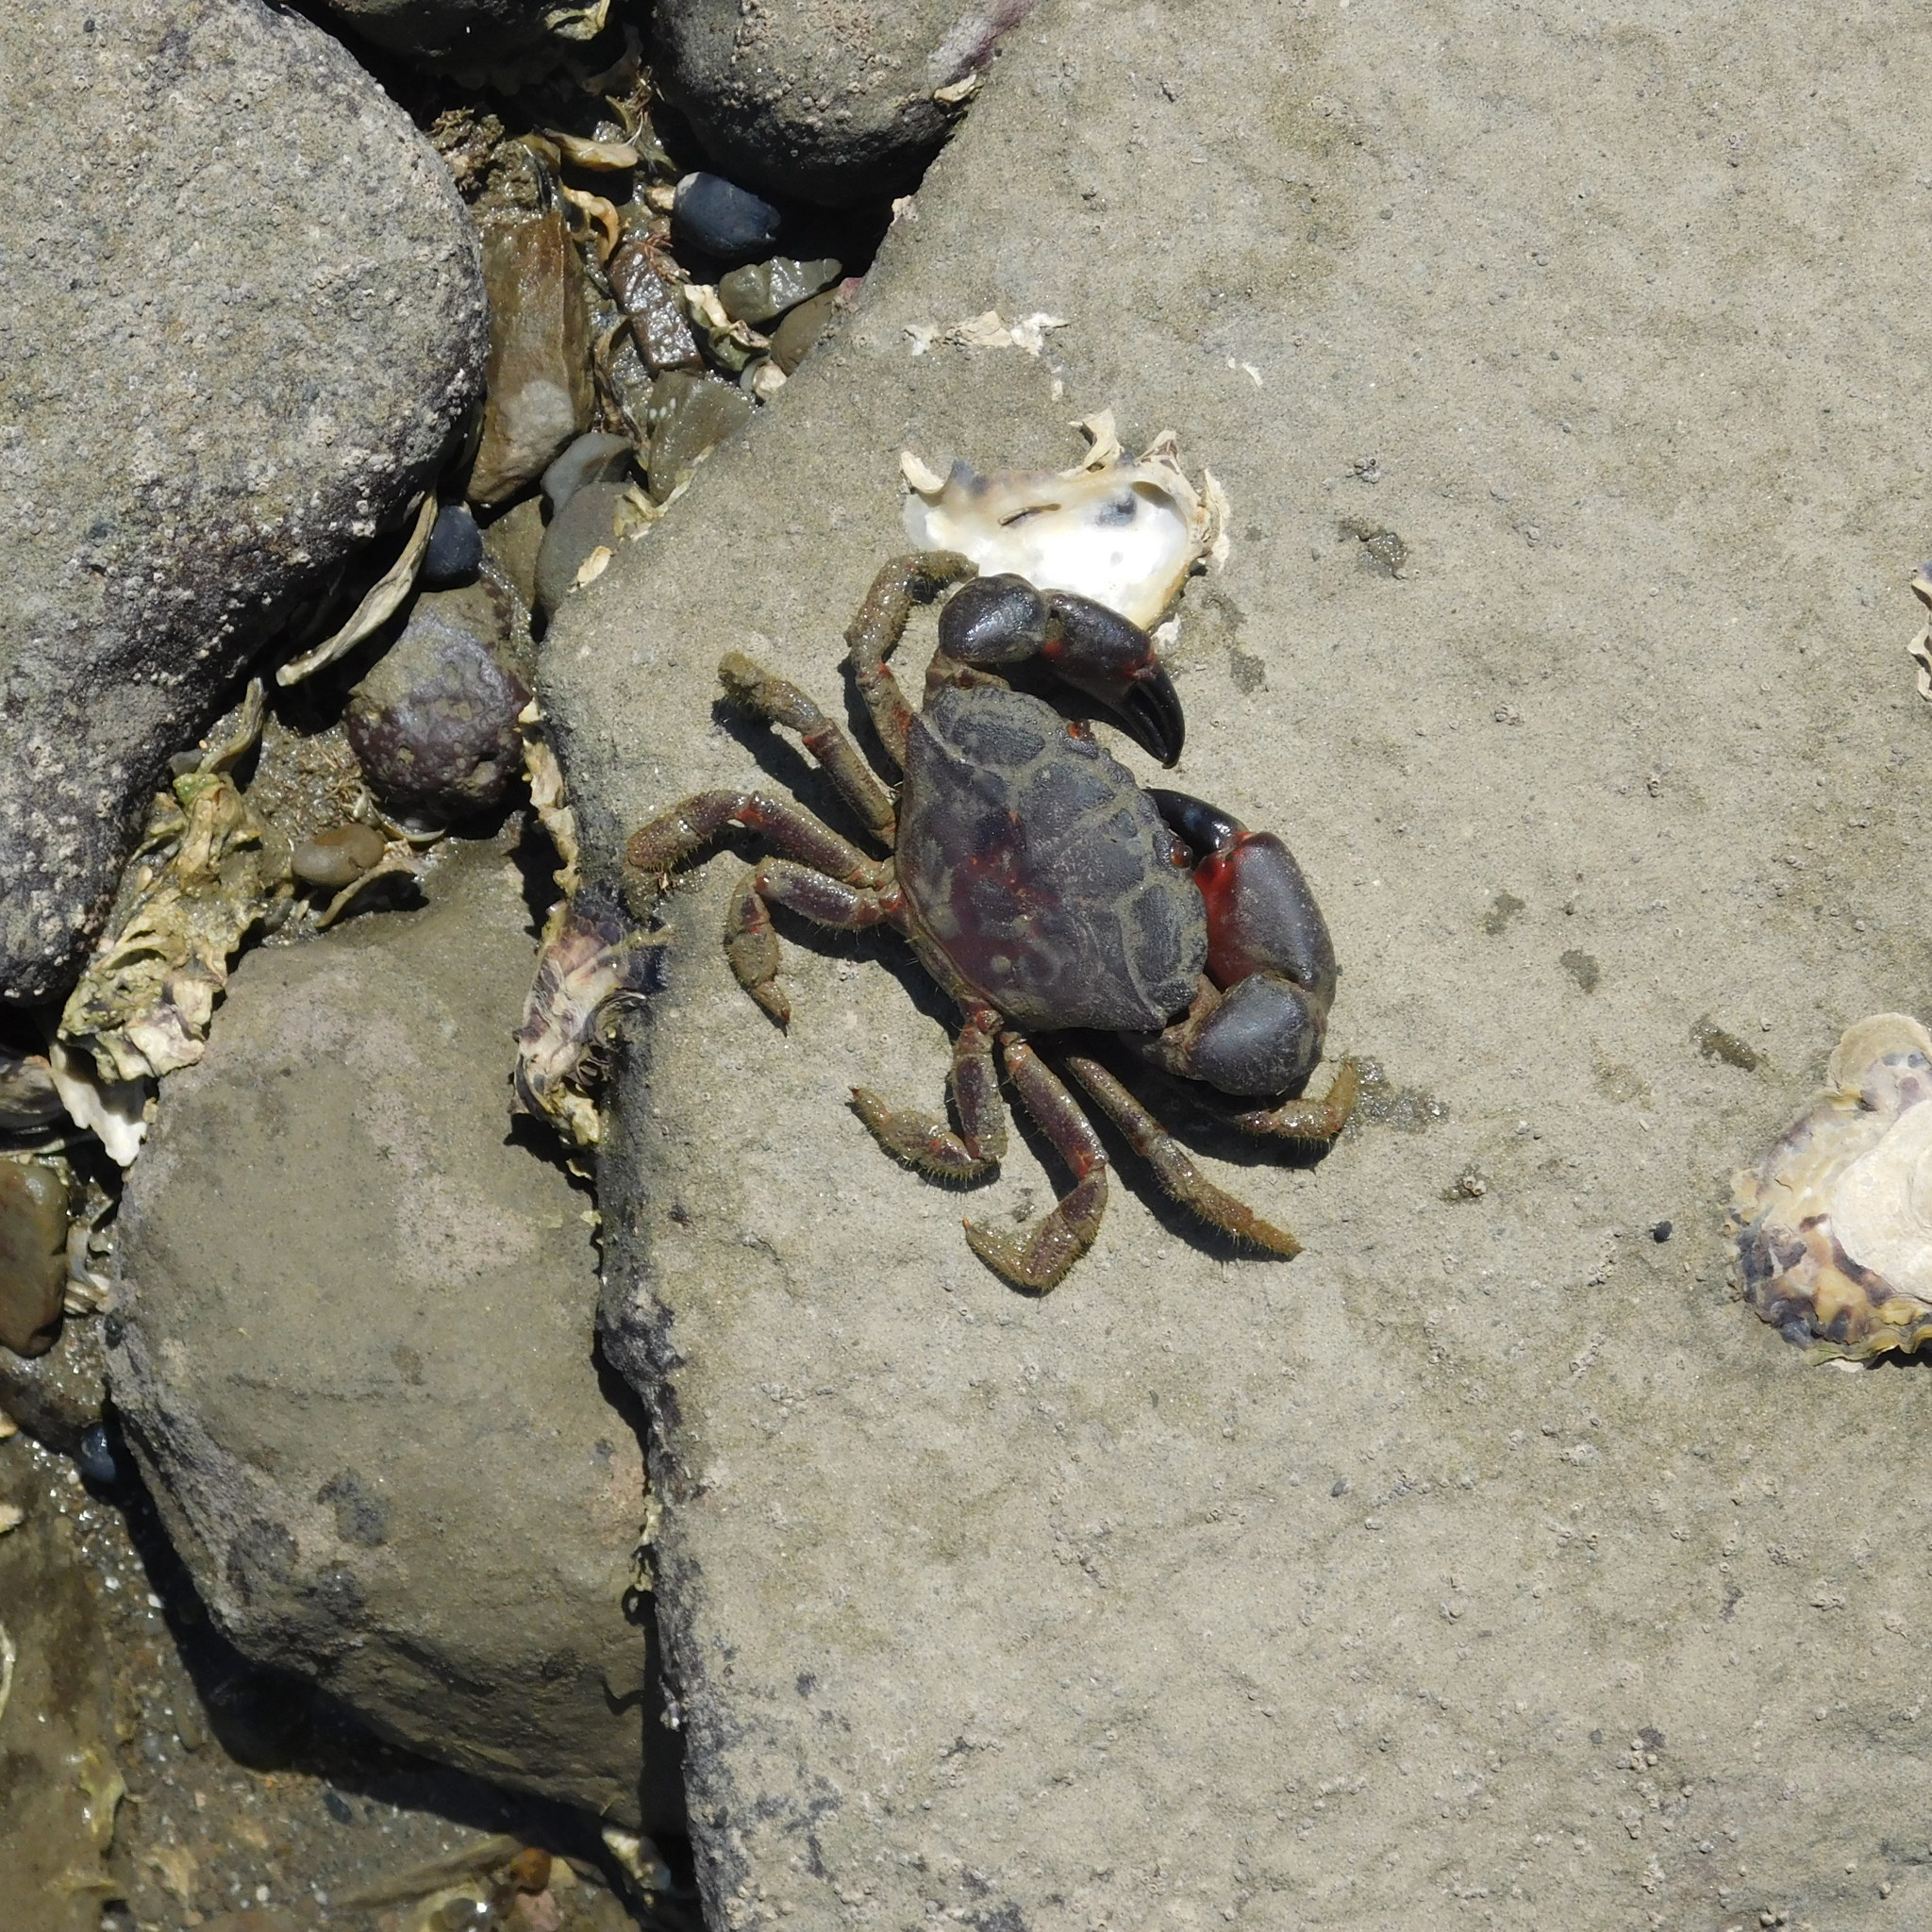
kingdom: Animalia
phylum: Arthropoda
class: Malacostraca
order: Decapoda
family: Oziidae
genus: Ozius
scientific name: Ozius deplanatus
